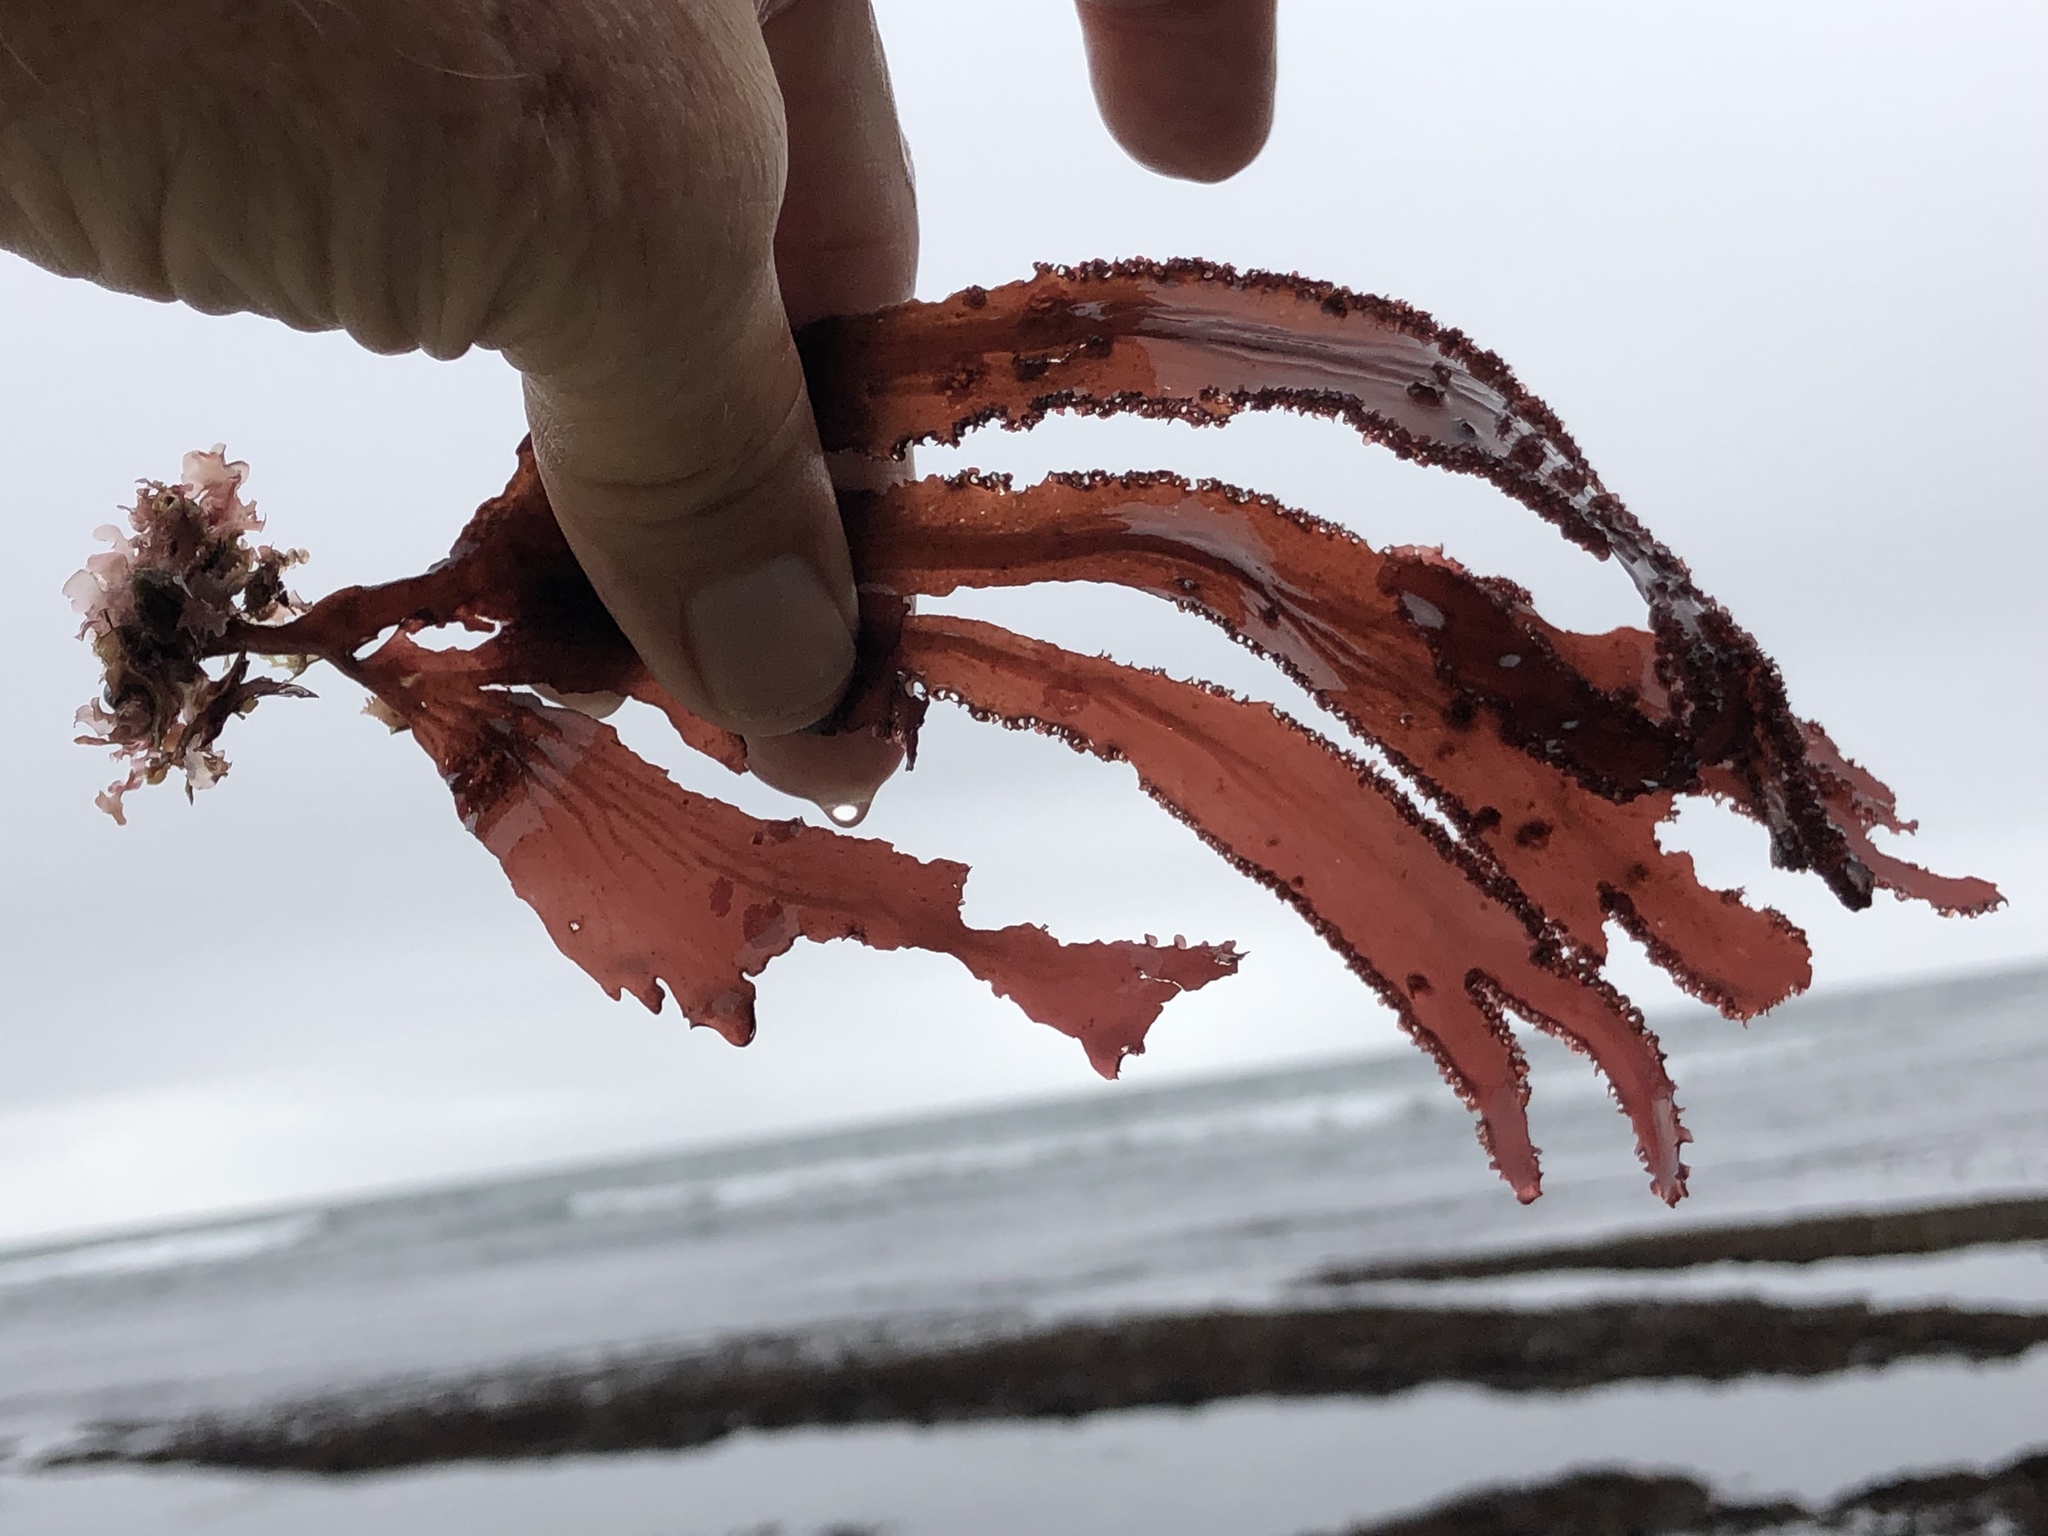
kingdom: Plantae
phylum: Rhodophyta
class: Florideophyceae
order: Ceramiales
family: Delesseriaceae
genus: Cryptopleura
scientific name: Cryptopleura ruprechtiana
